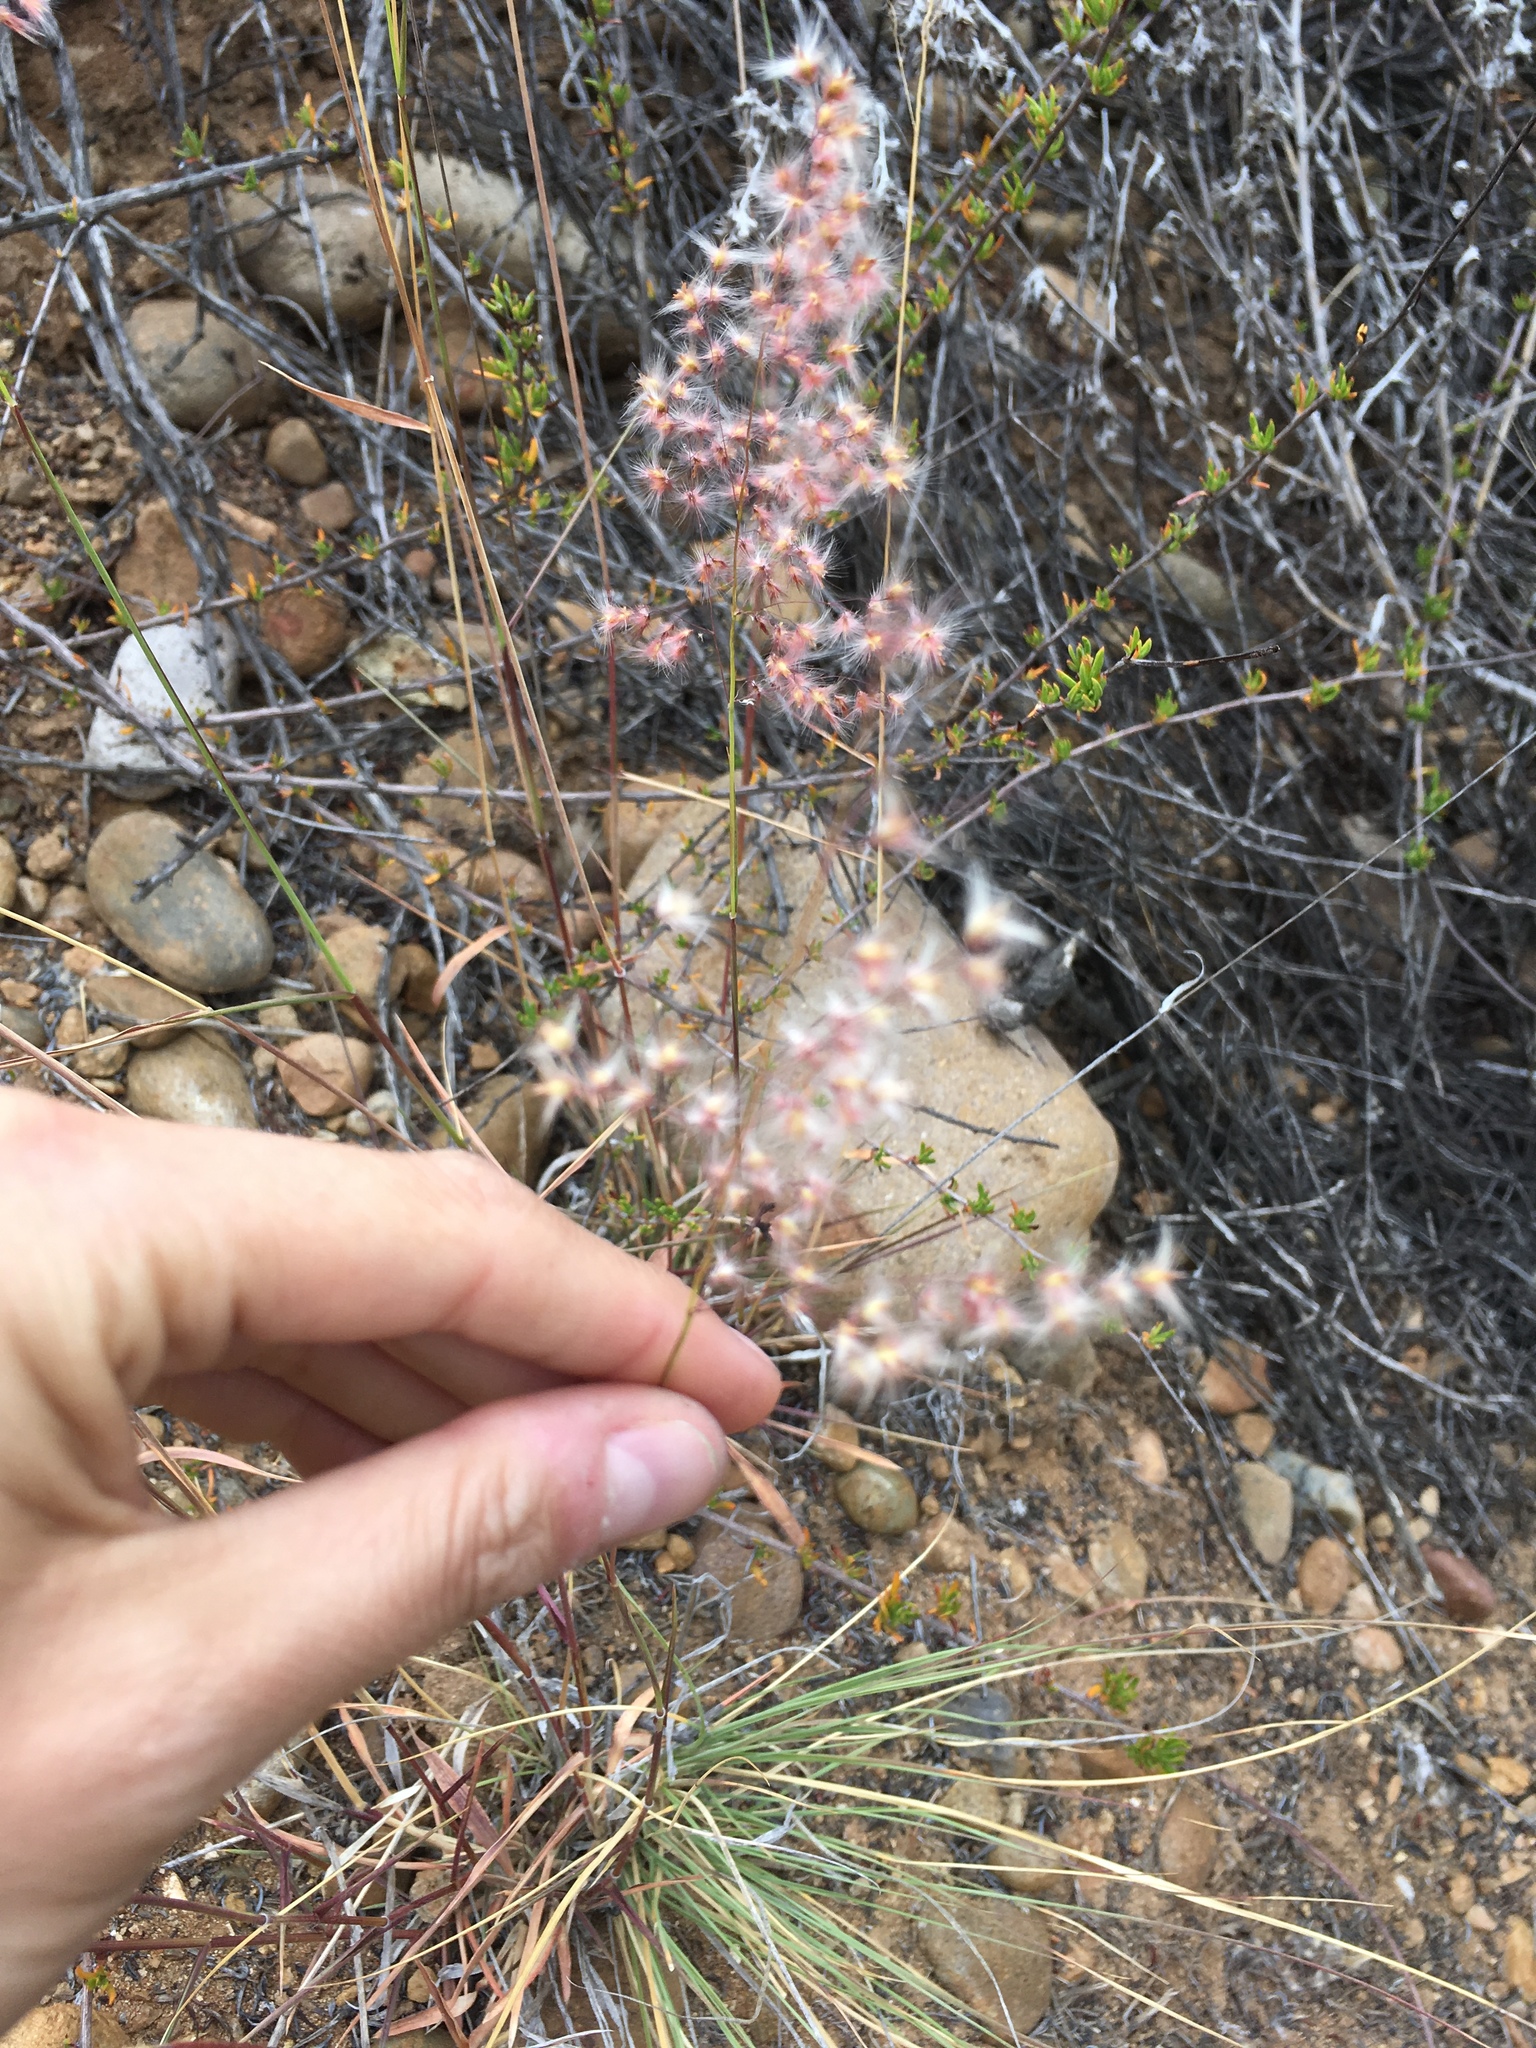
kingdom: Plantae
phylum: Tracheophyta
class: Liliopsida
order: Poales
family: Poaceae
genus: Melinis
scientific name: Melinis repens
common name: Rose natal grass
